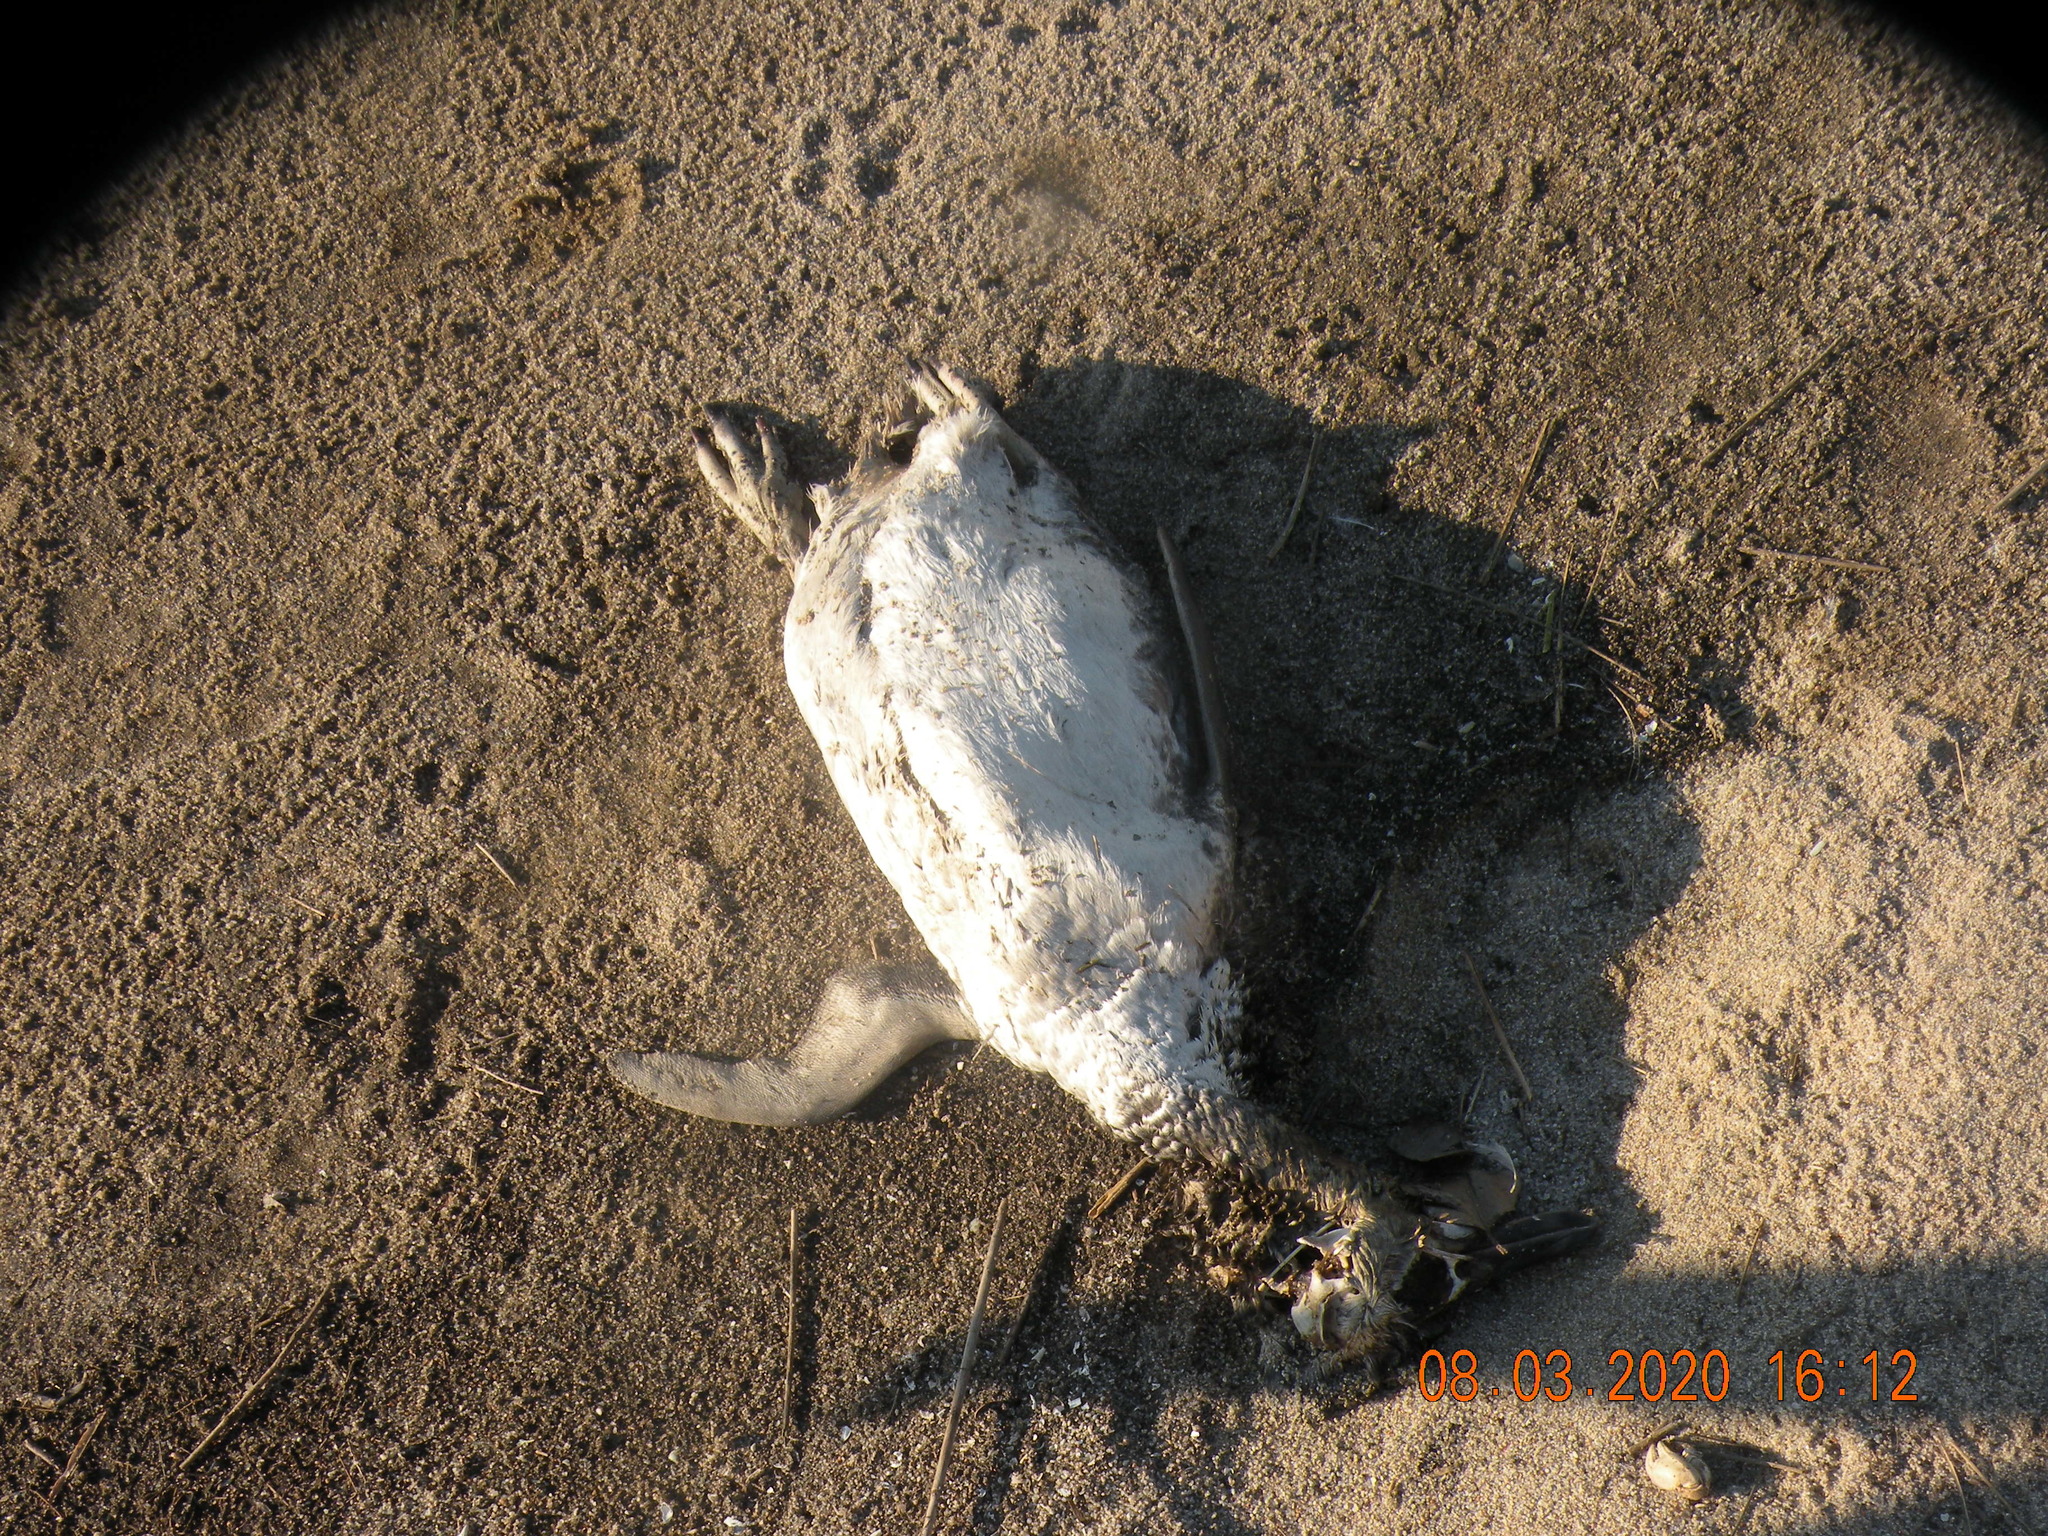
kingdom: Animalia
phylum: Chordata
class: Aves
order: Sphenisciformes
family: Spheniscidae
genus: Spheniscus
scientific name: Spheniscus magellanicus
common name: Magellanic penguin
